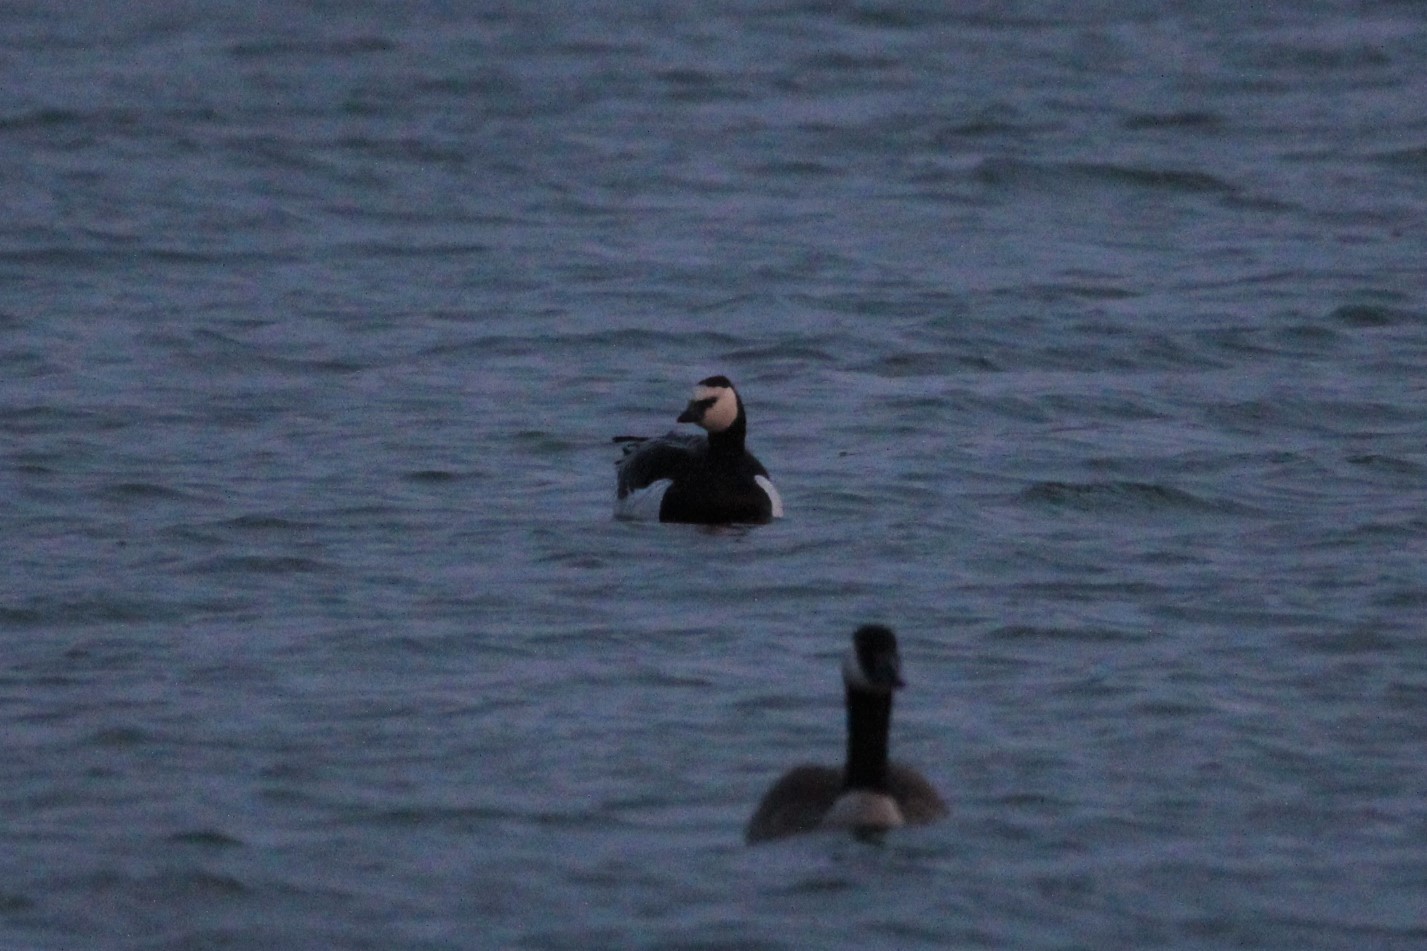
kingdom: Animalia
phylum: Chordata
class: Aves
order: Anseriformes
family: Anatidae
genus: Branta
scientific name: Branta leucopsis
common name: Barnacle goose
